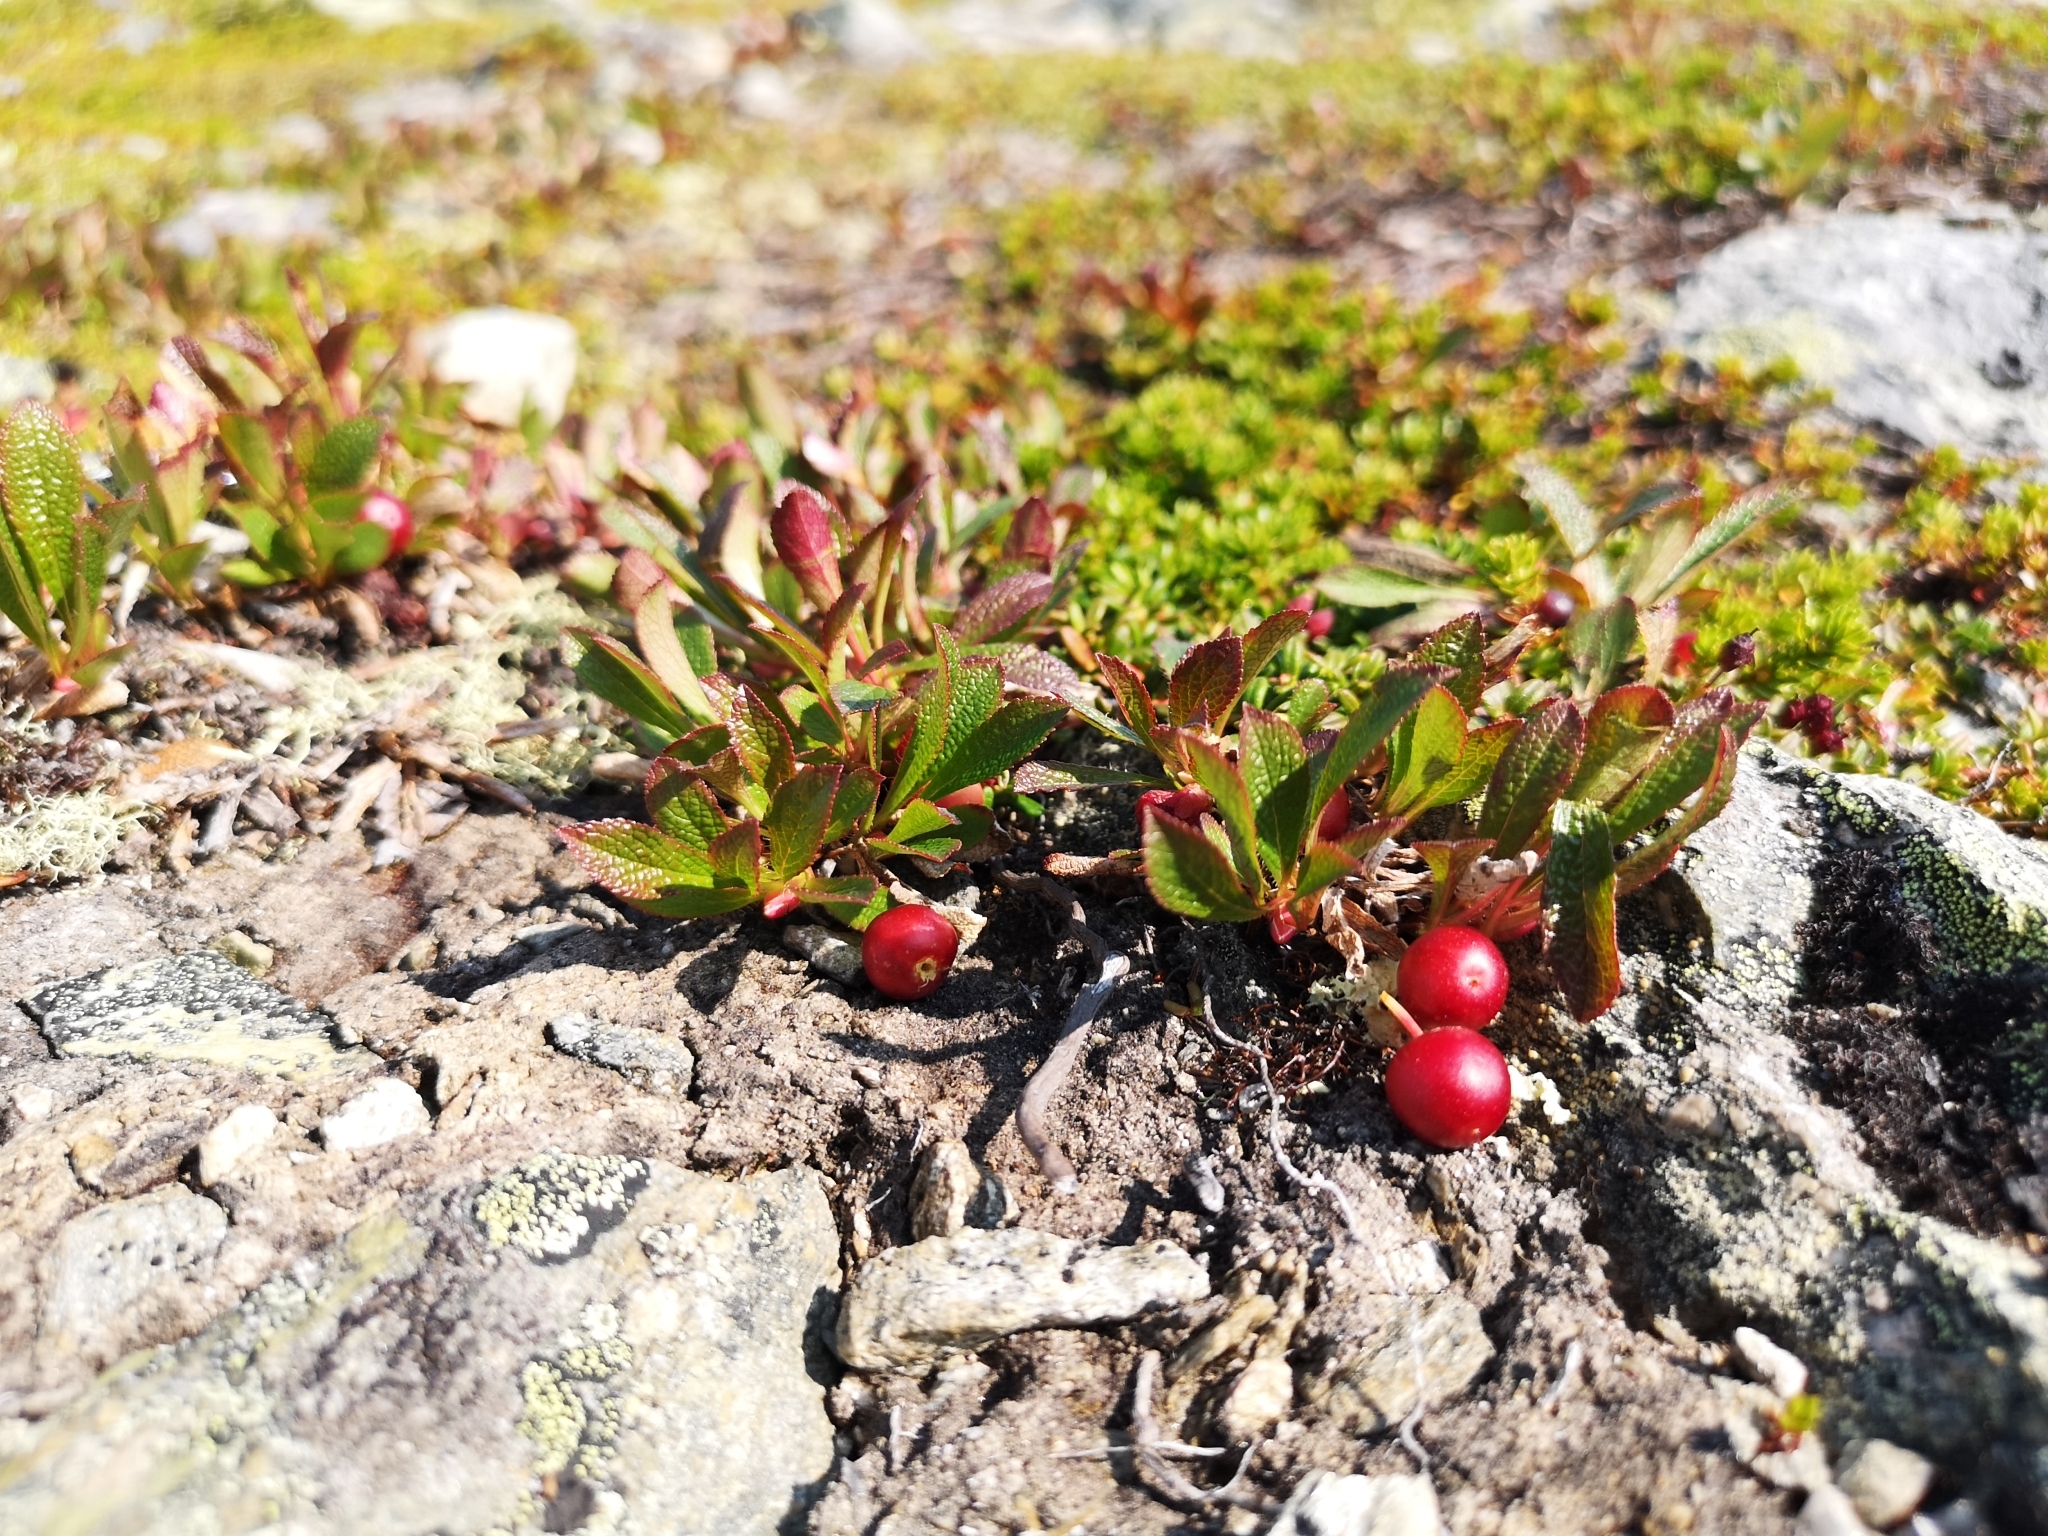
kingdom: Plantae
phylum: Tracheophyta
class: Magnoliopsida
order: Ericales
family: Ericaceae
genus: Arctostaphylos
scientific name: Arctostaphylos alpinus
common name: Alpine bearberry
